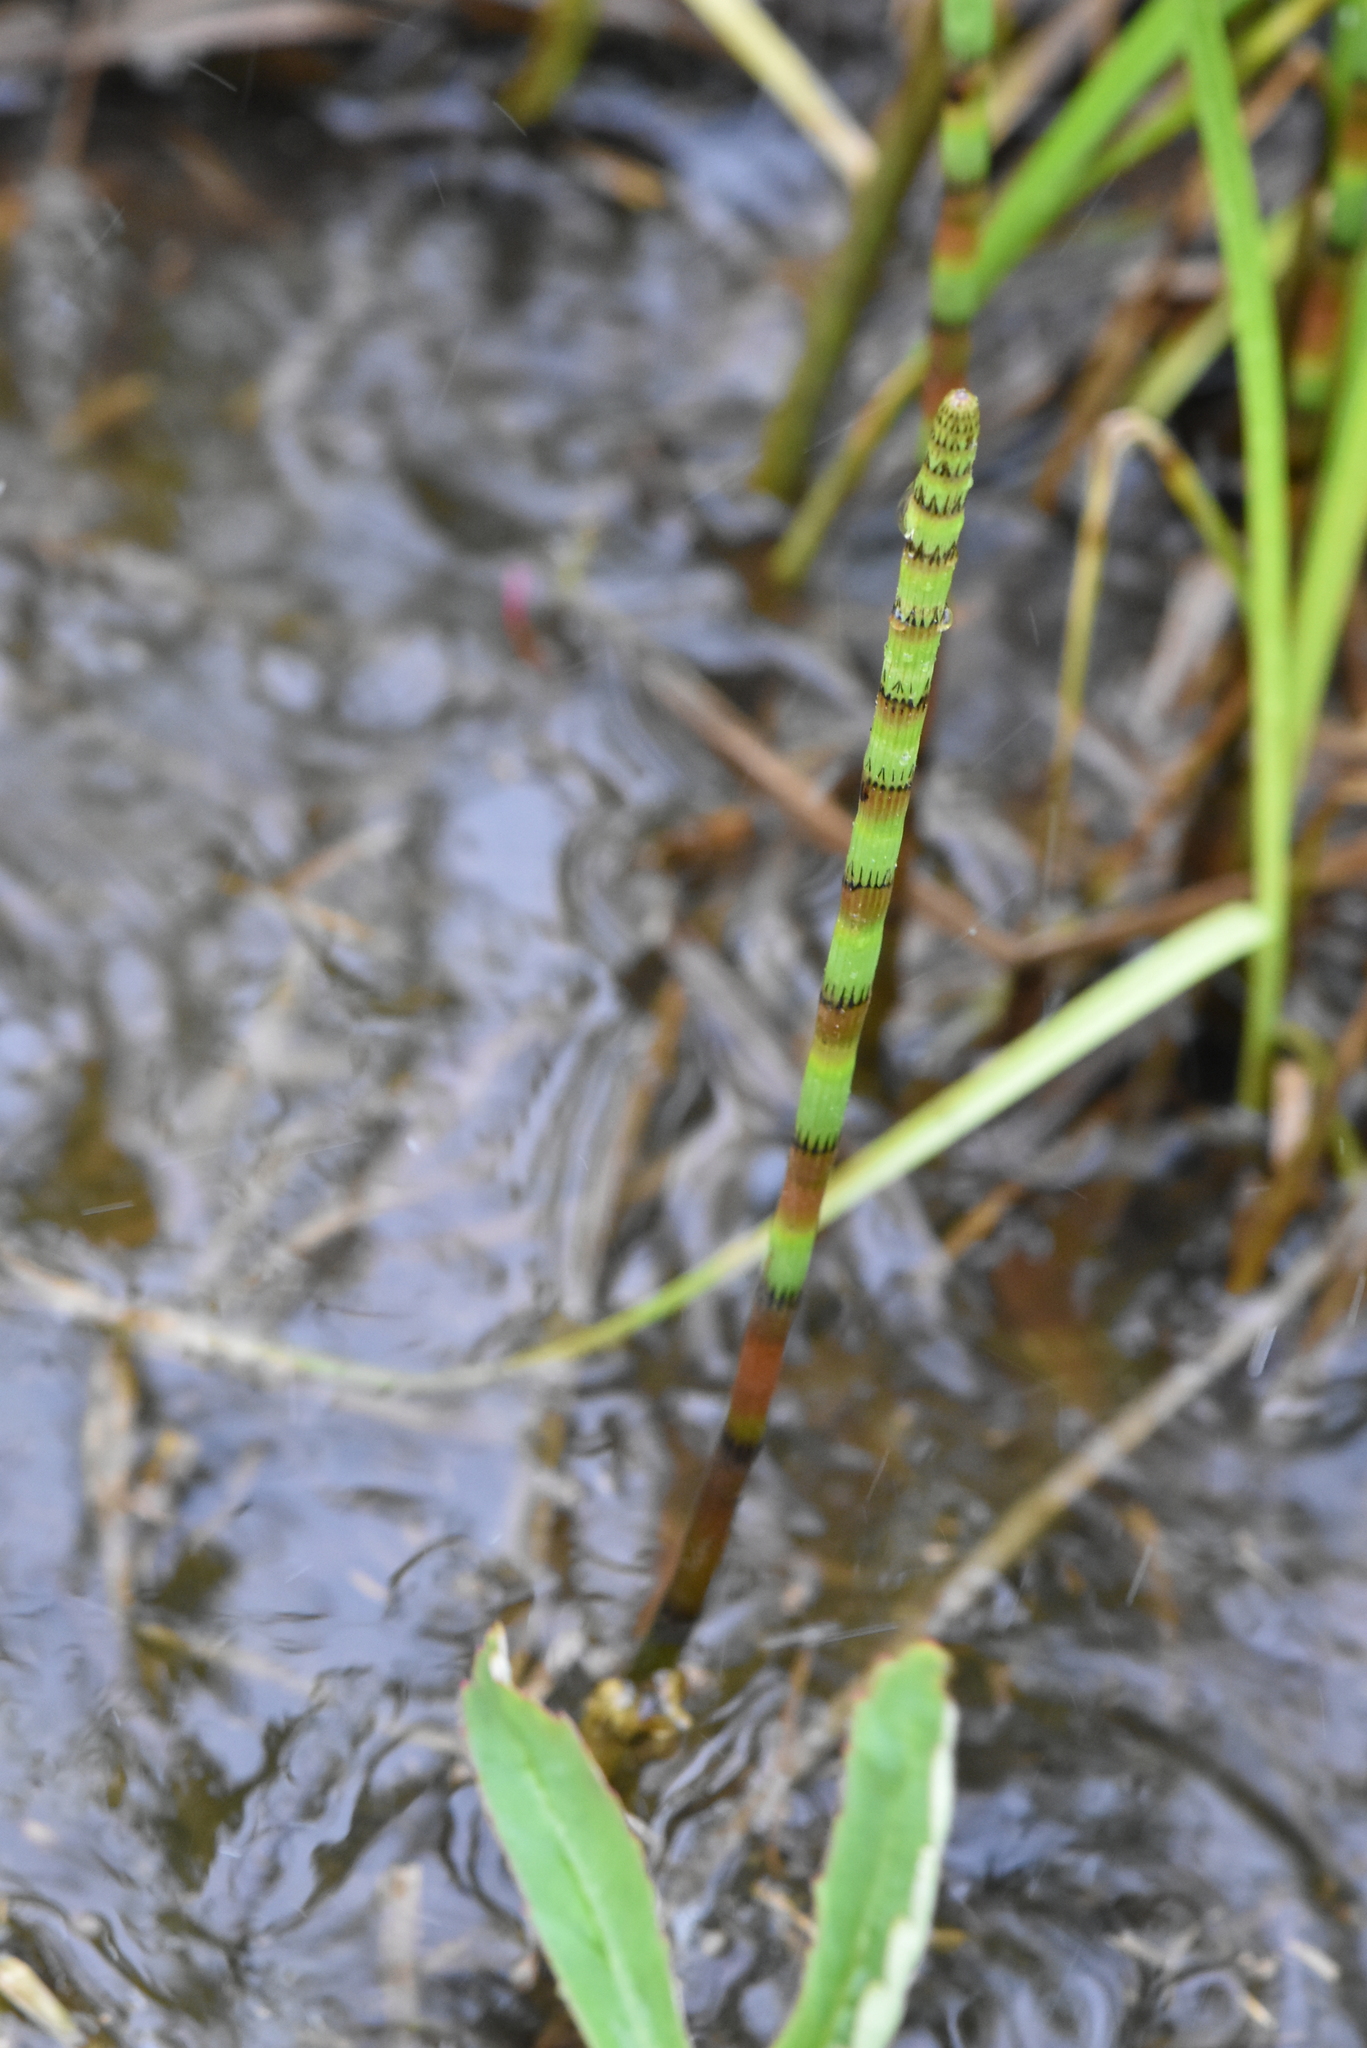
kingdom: Plantae
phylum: Tracheophyta
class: Polypodiopsida
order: Equisetales
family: Equisetaceae
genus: Equisetum
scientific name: Equisetum fluviatile
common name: Water horsetail
